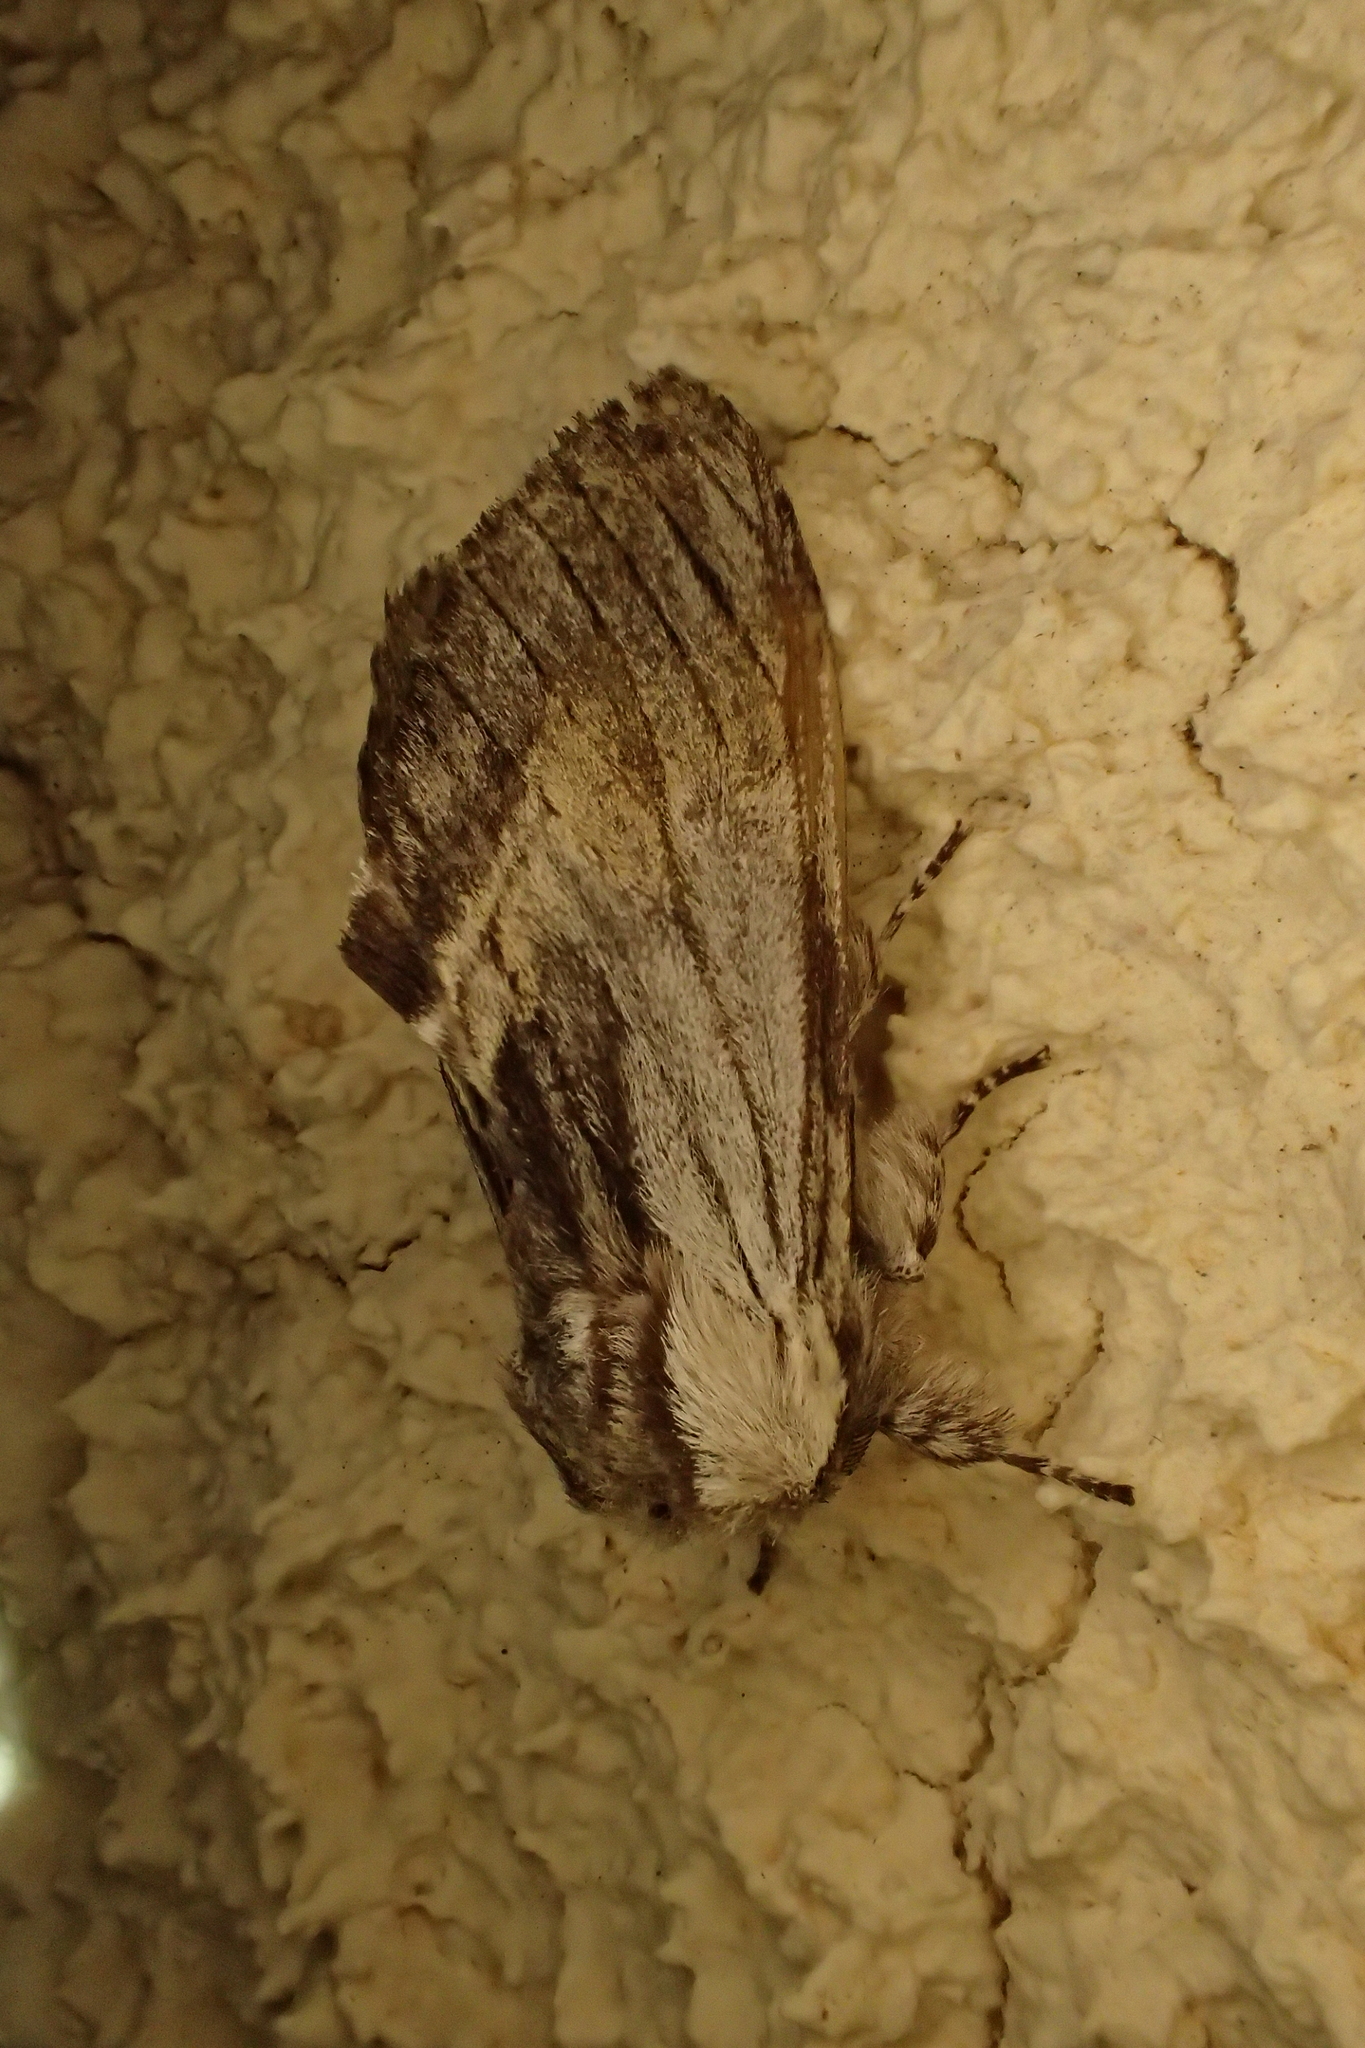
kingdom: Animalia
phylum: Arthropoda
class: Insecta
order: Lepidoptera
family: Notodontidae
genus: Harpyia
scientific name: Harpyia milhauseri
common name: Tawny prominent
